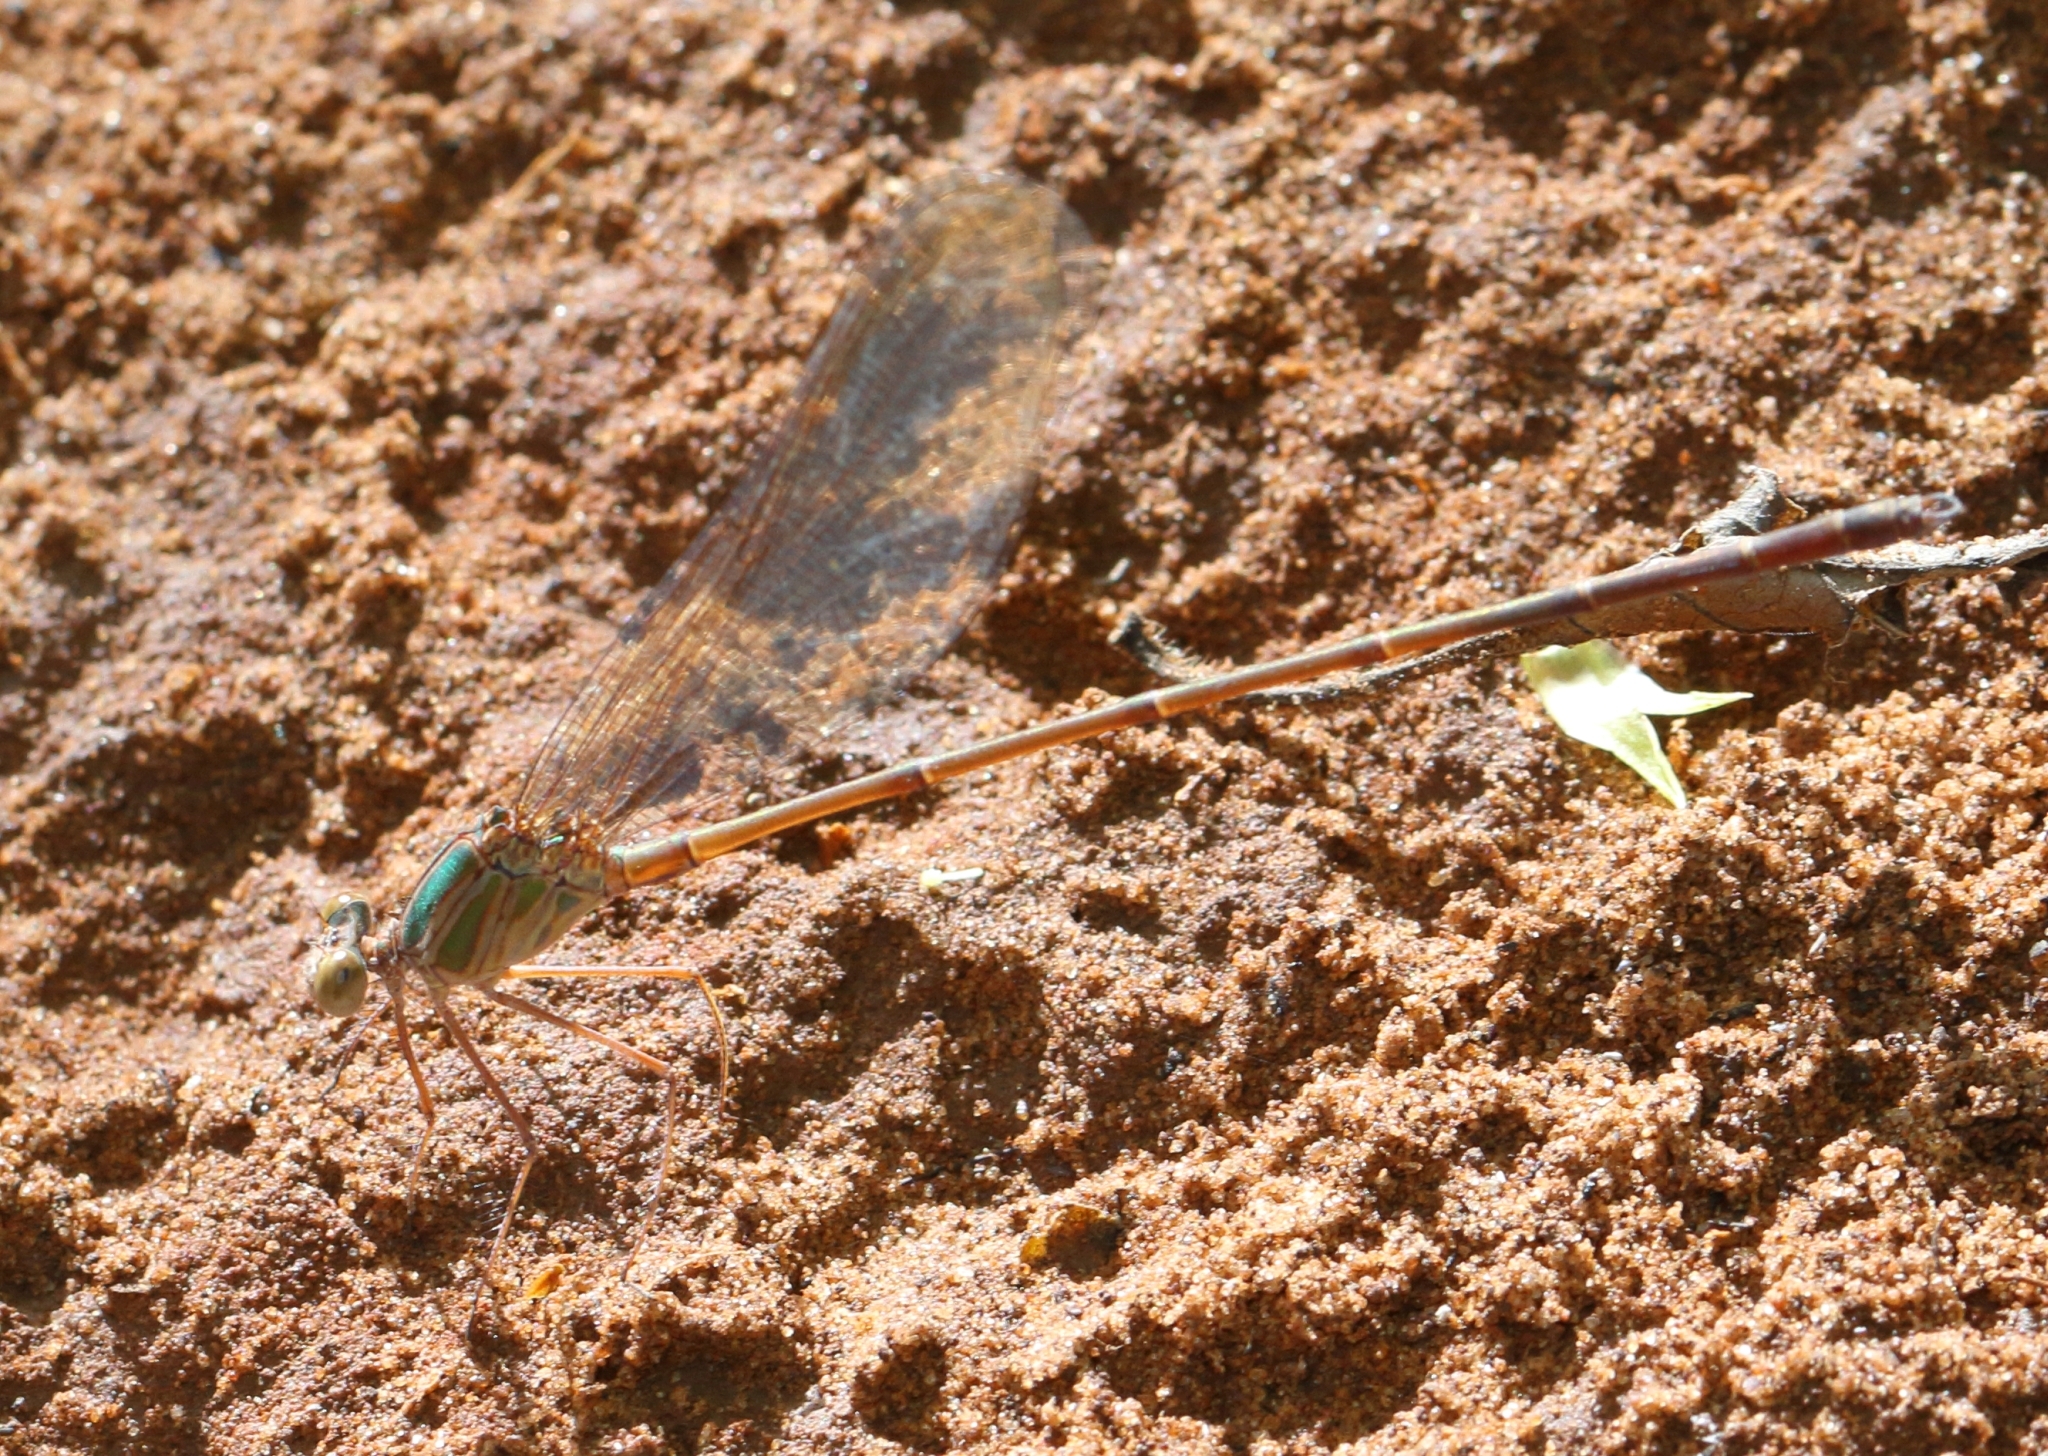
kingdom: Animalia
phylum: Arthropoda
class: Insecta
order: Odonata
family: Calopterygidae
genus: Phaon
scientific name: Phaon iridipennis
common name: Glistening demoiselle
